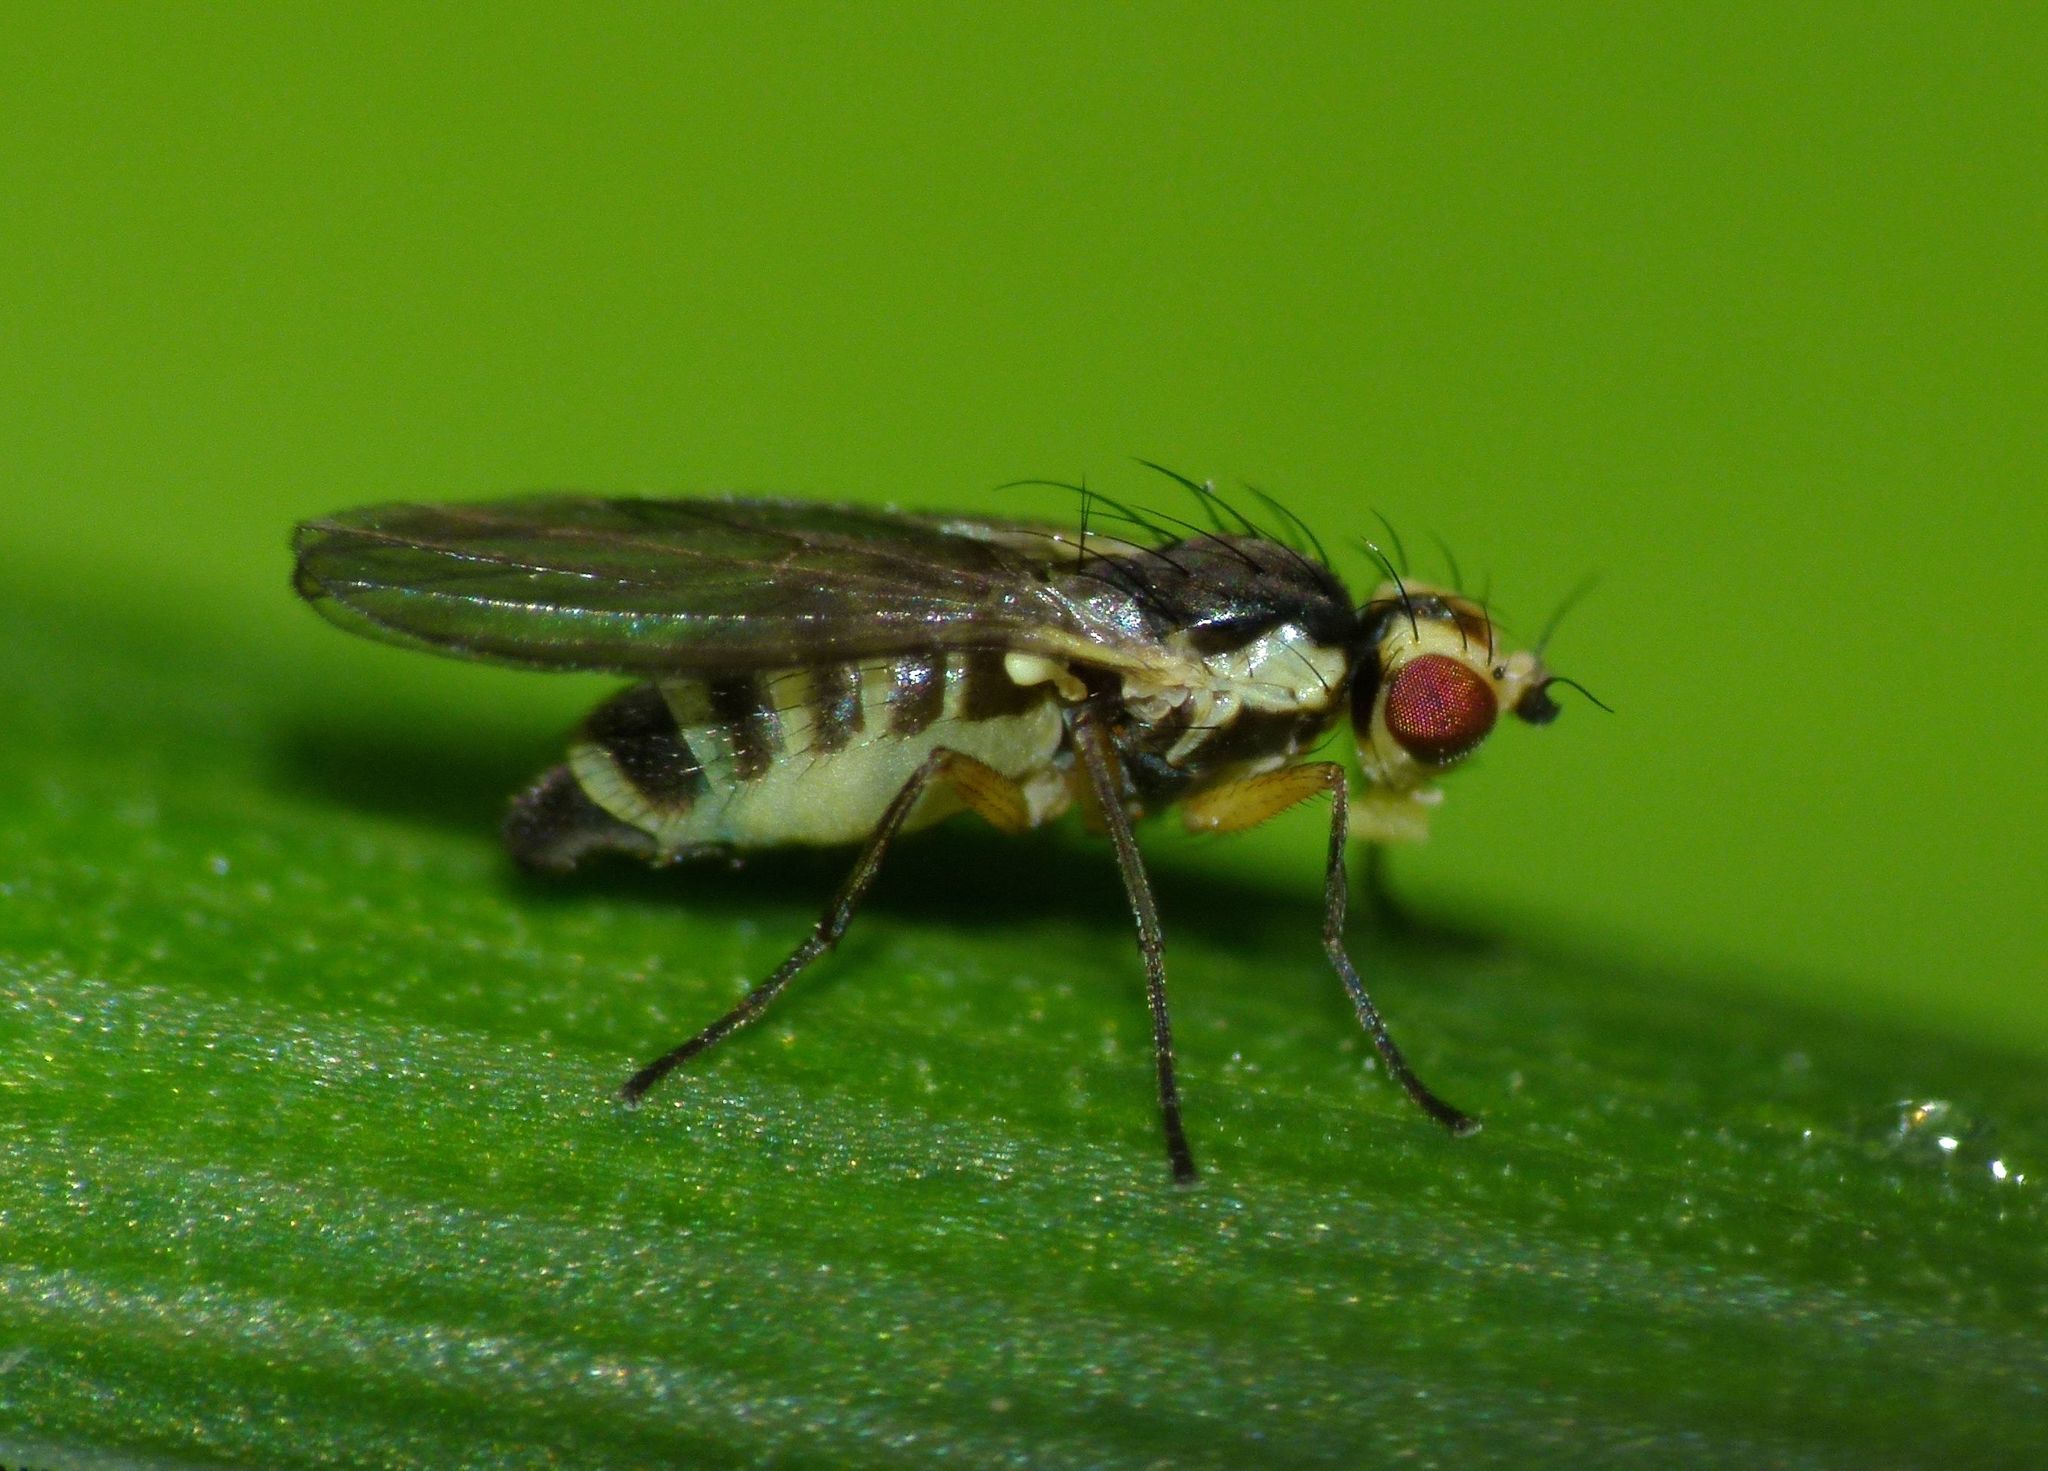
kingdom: Animalia
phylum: Arthropoda
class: Insecta
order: Diptera
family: Agromyzidae
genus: Cerodontha
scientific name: Cerodontha angustipennis
